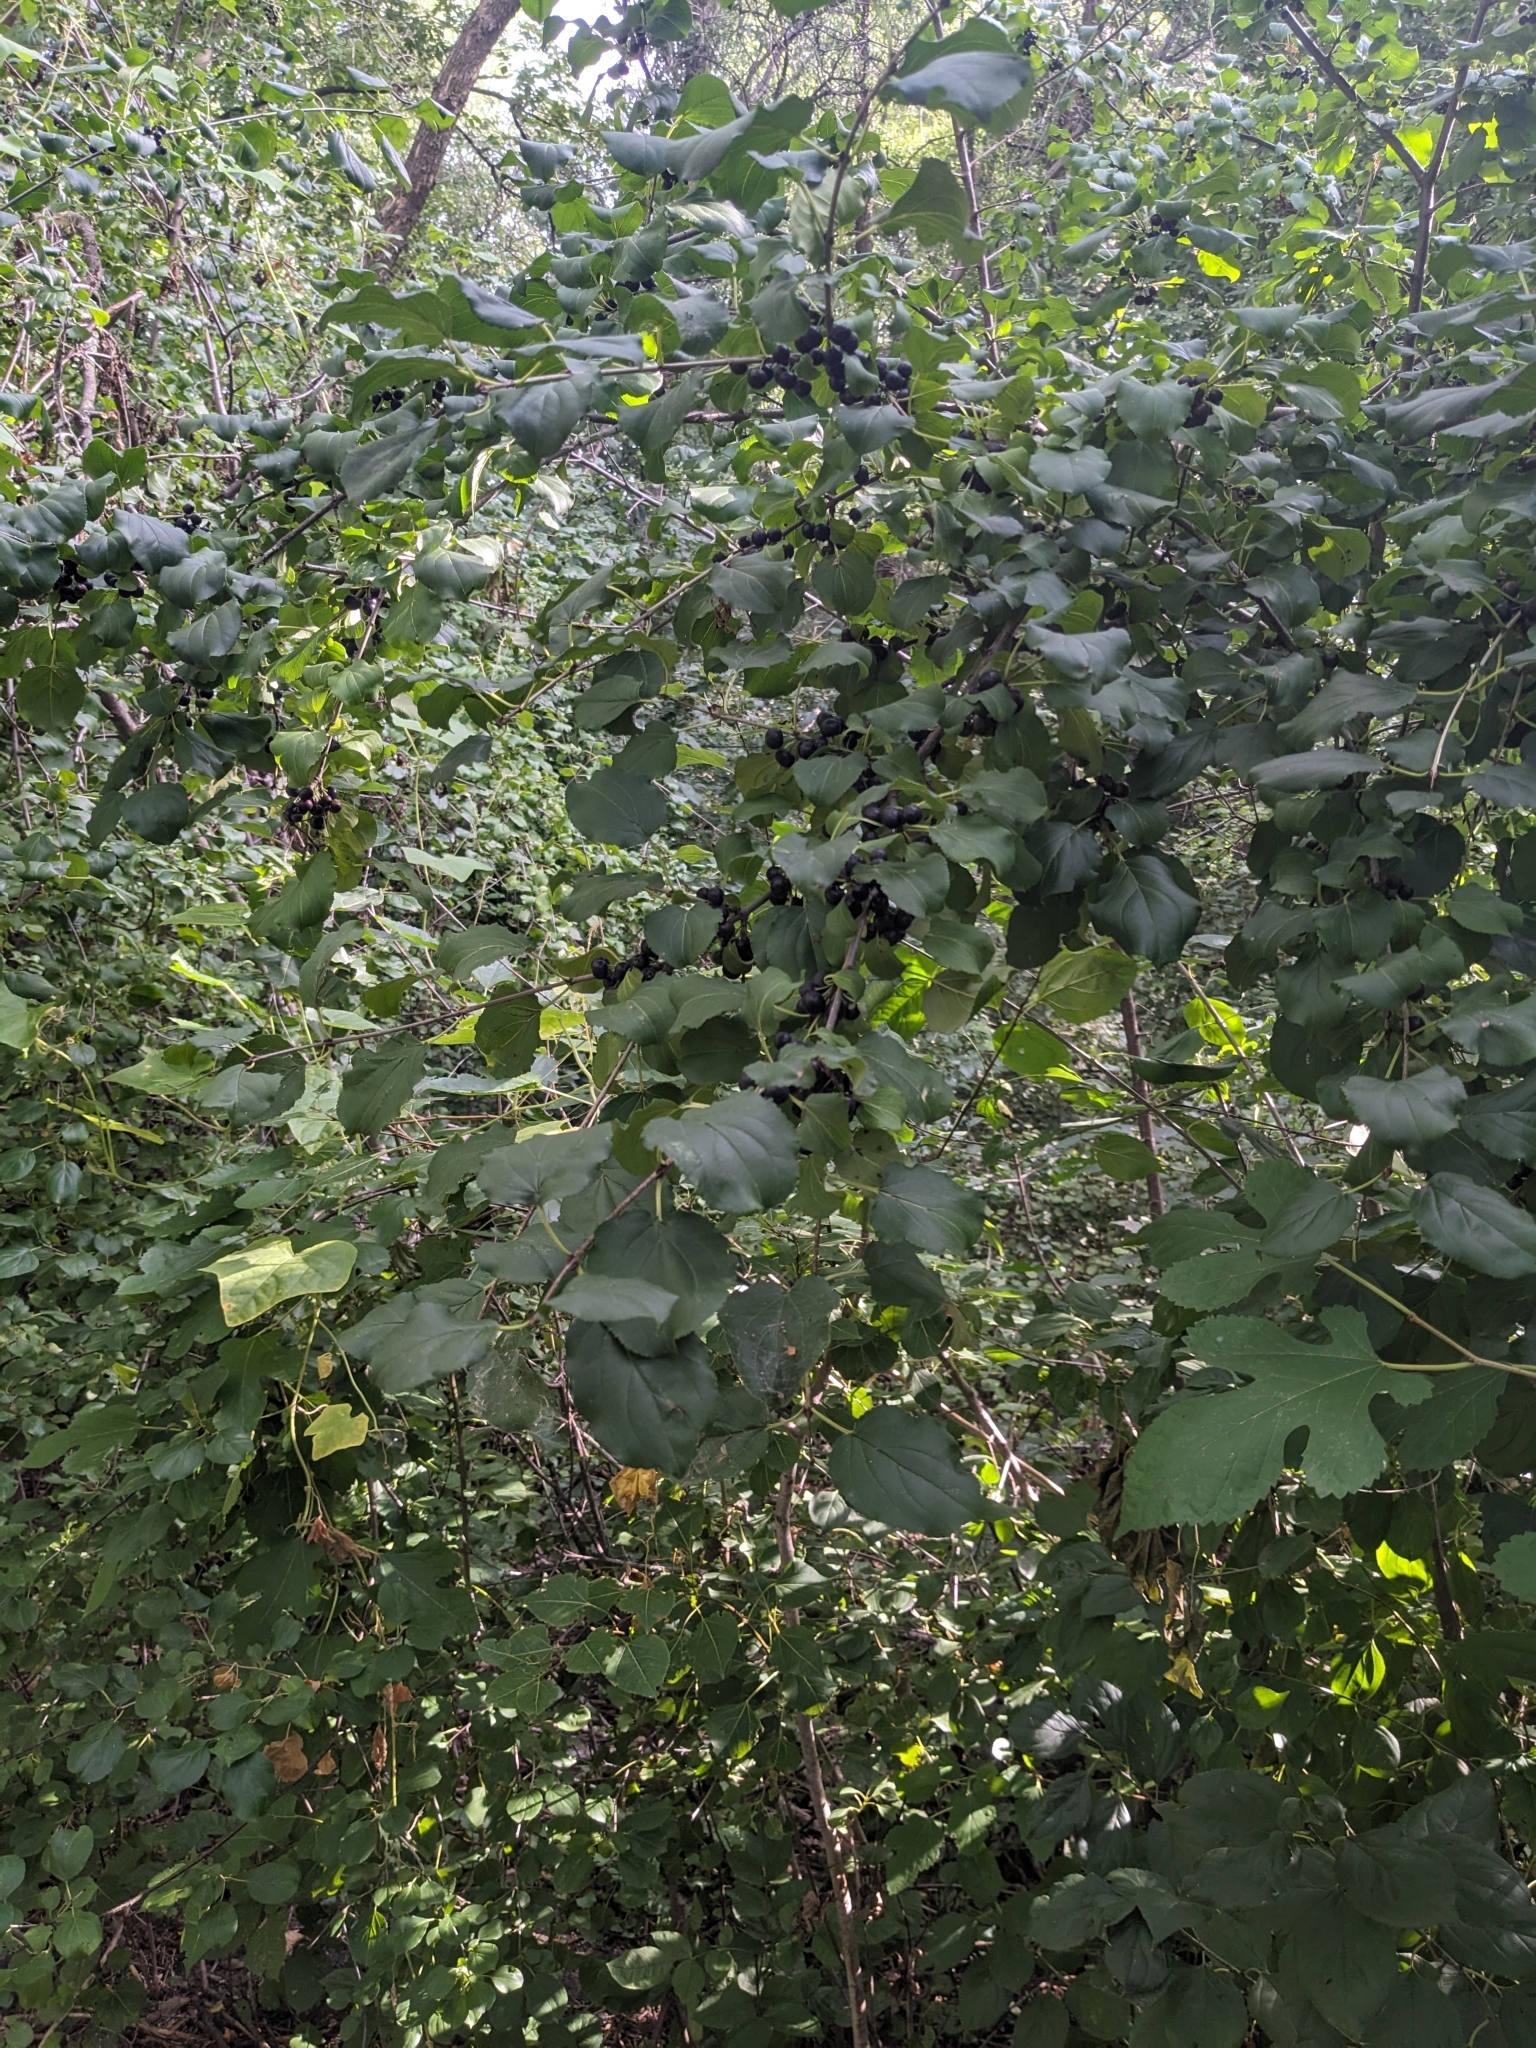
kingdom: Plantae
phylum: Tracheophyta
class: Magnoliopsida
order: Rosales
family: Rhamnaceae
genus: Rhamnus
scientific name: Rhamnus cathartica
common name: Common buckthorn
